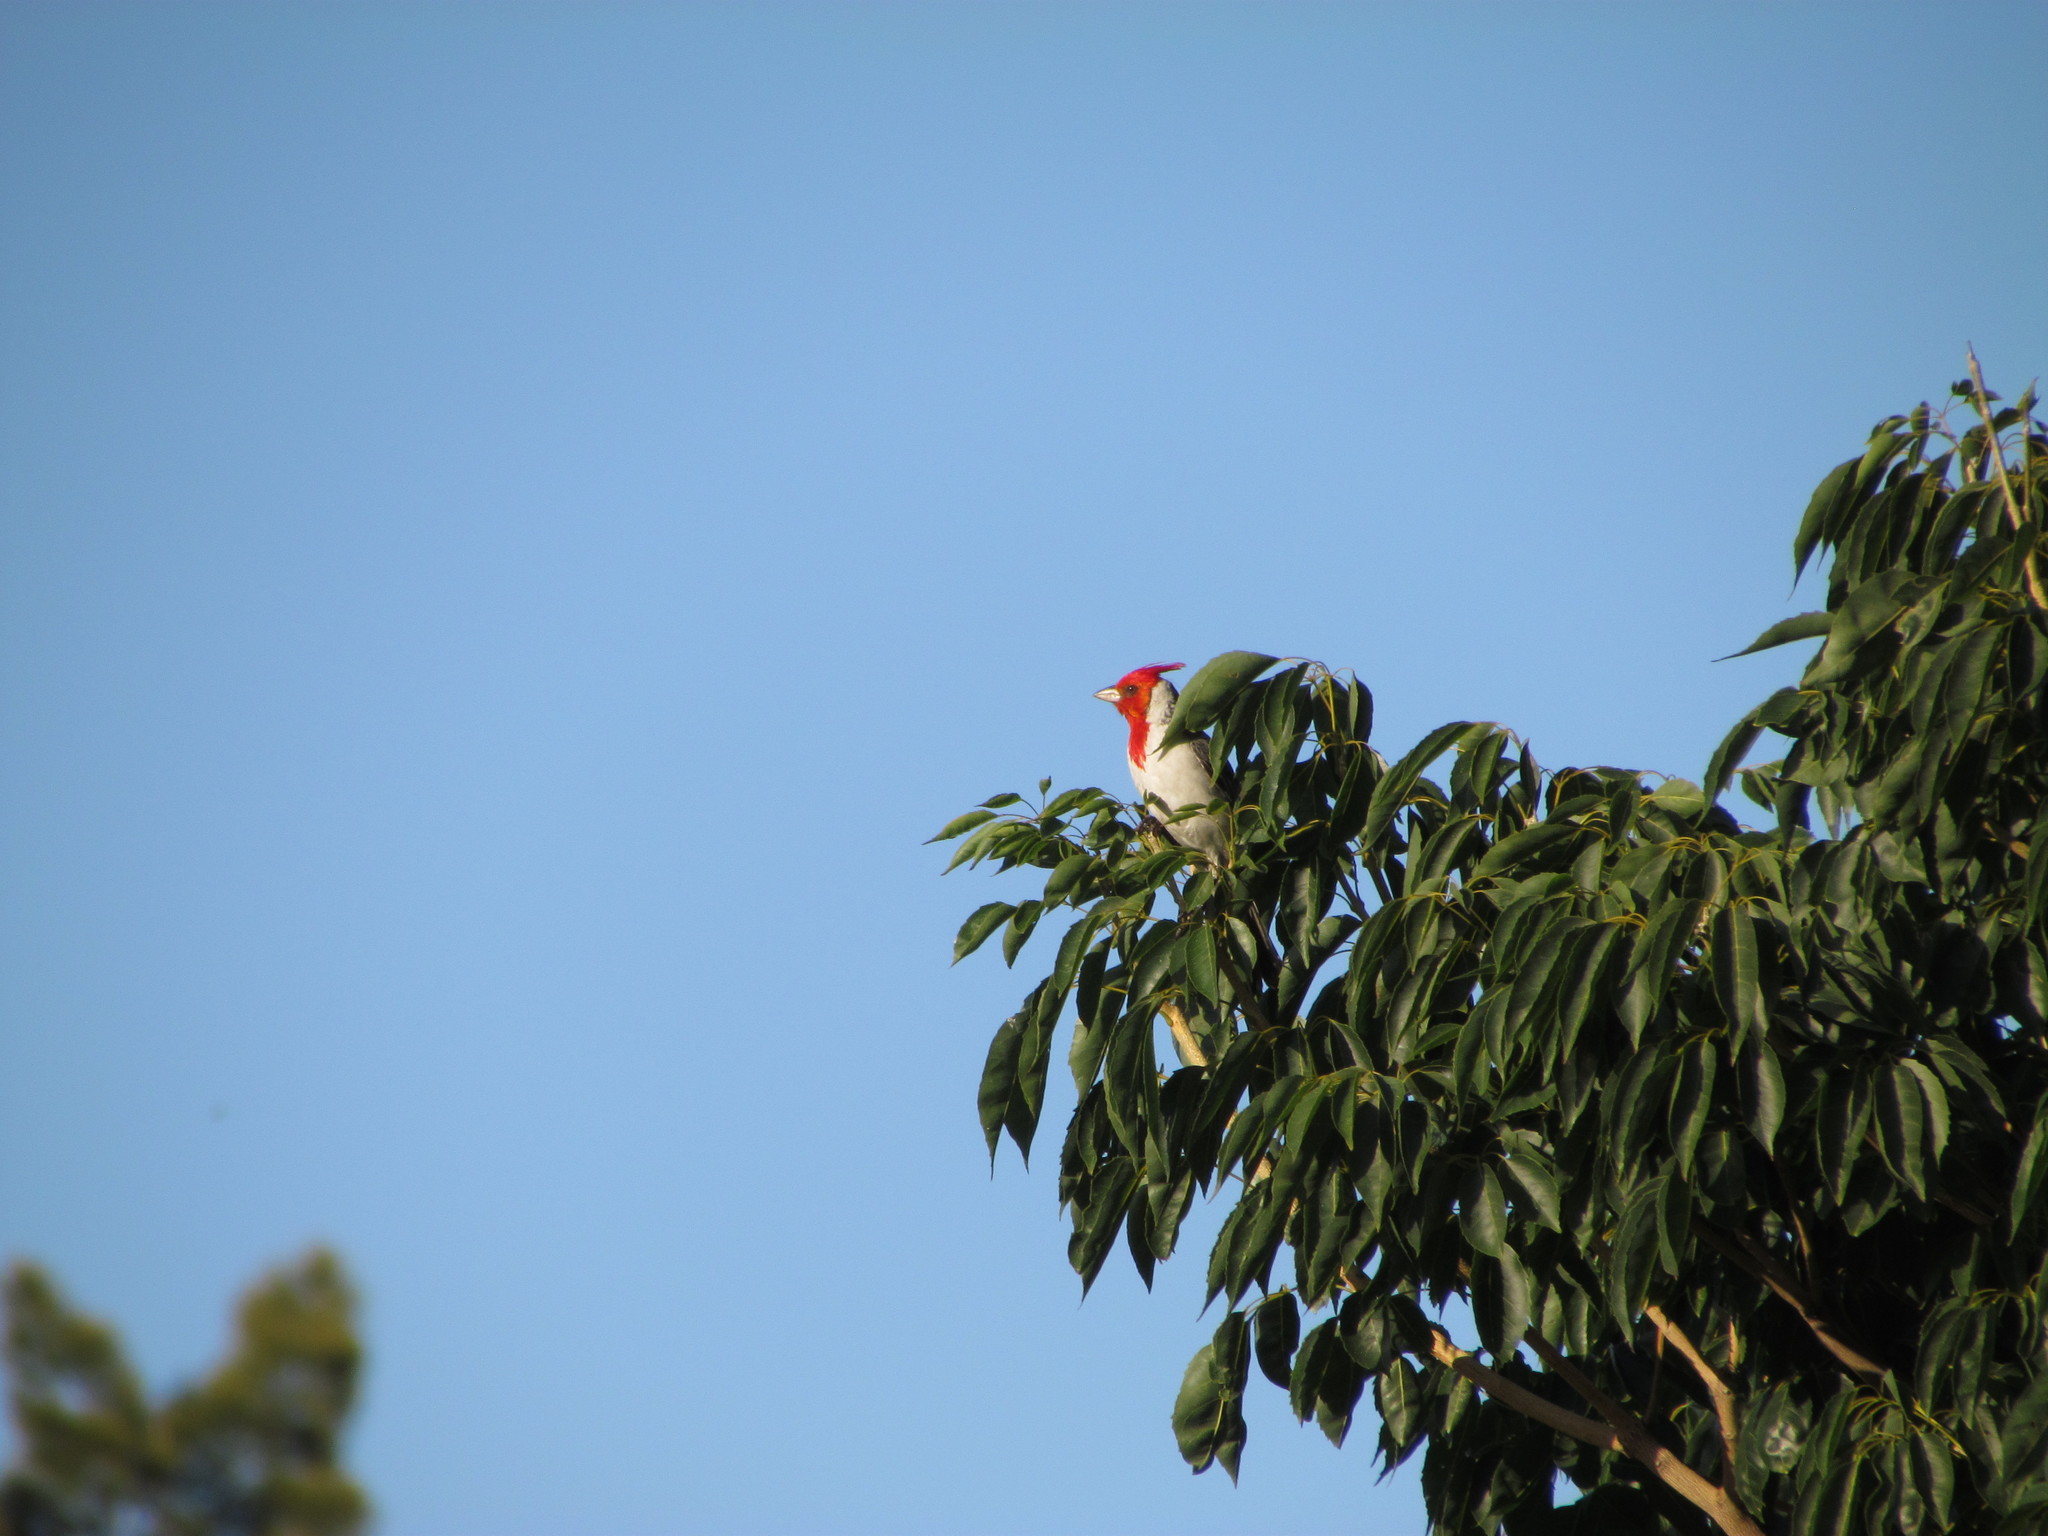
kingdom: Animalia
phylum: Chordata
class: Aves
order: Passeriformes
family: Thraupidae
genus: Paroaria
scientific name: Paroaria coronata
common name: Red-crested cardinal
